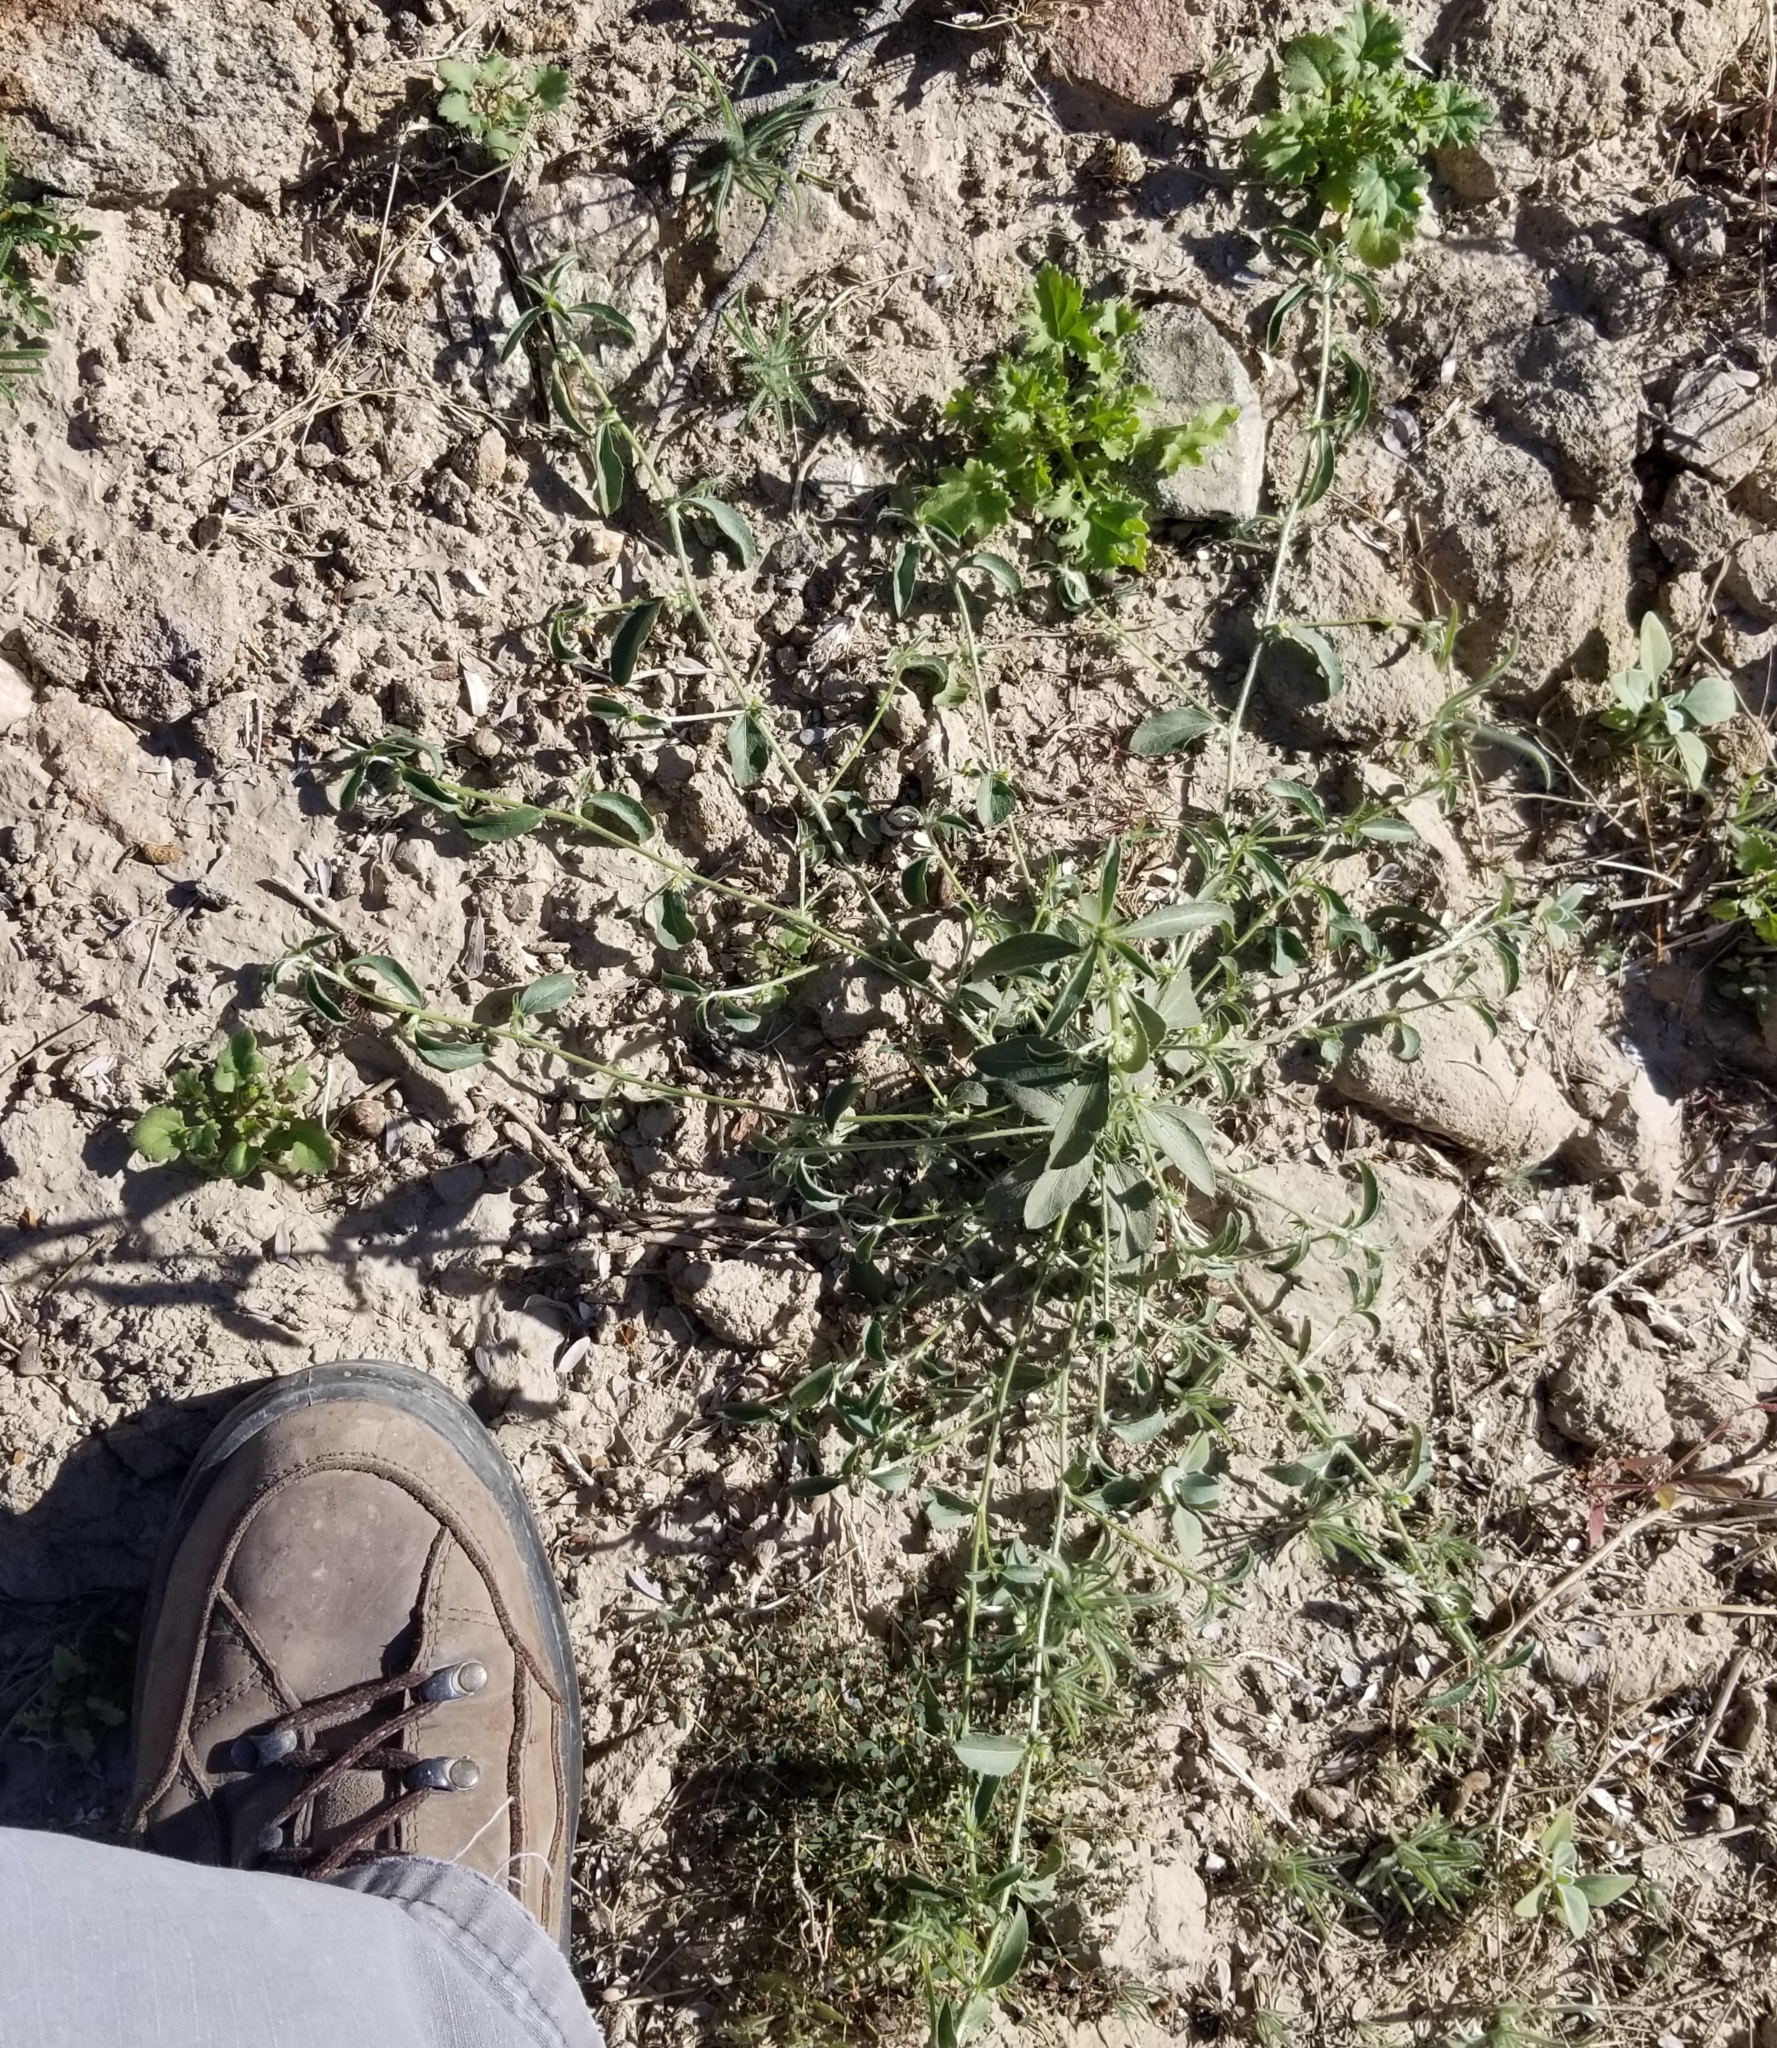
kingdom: Plantae
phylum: Tracheophyta
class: Magnoliopsida
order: Malpighiales
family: Euphorbiaceae
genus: Ditaxis
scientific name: Ditaxis serrata
